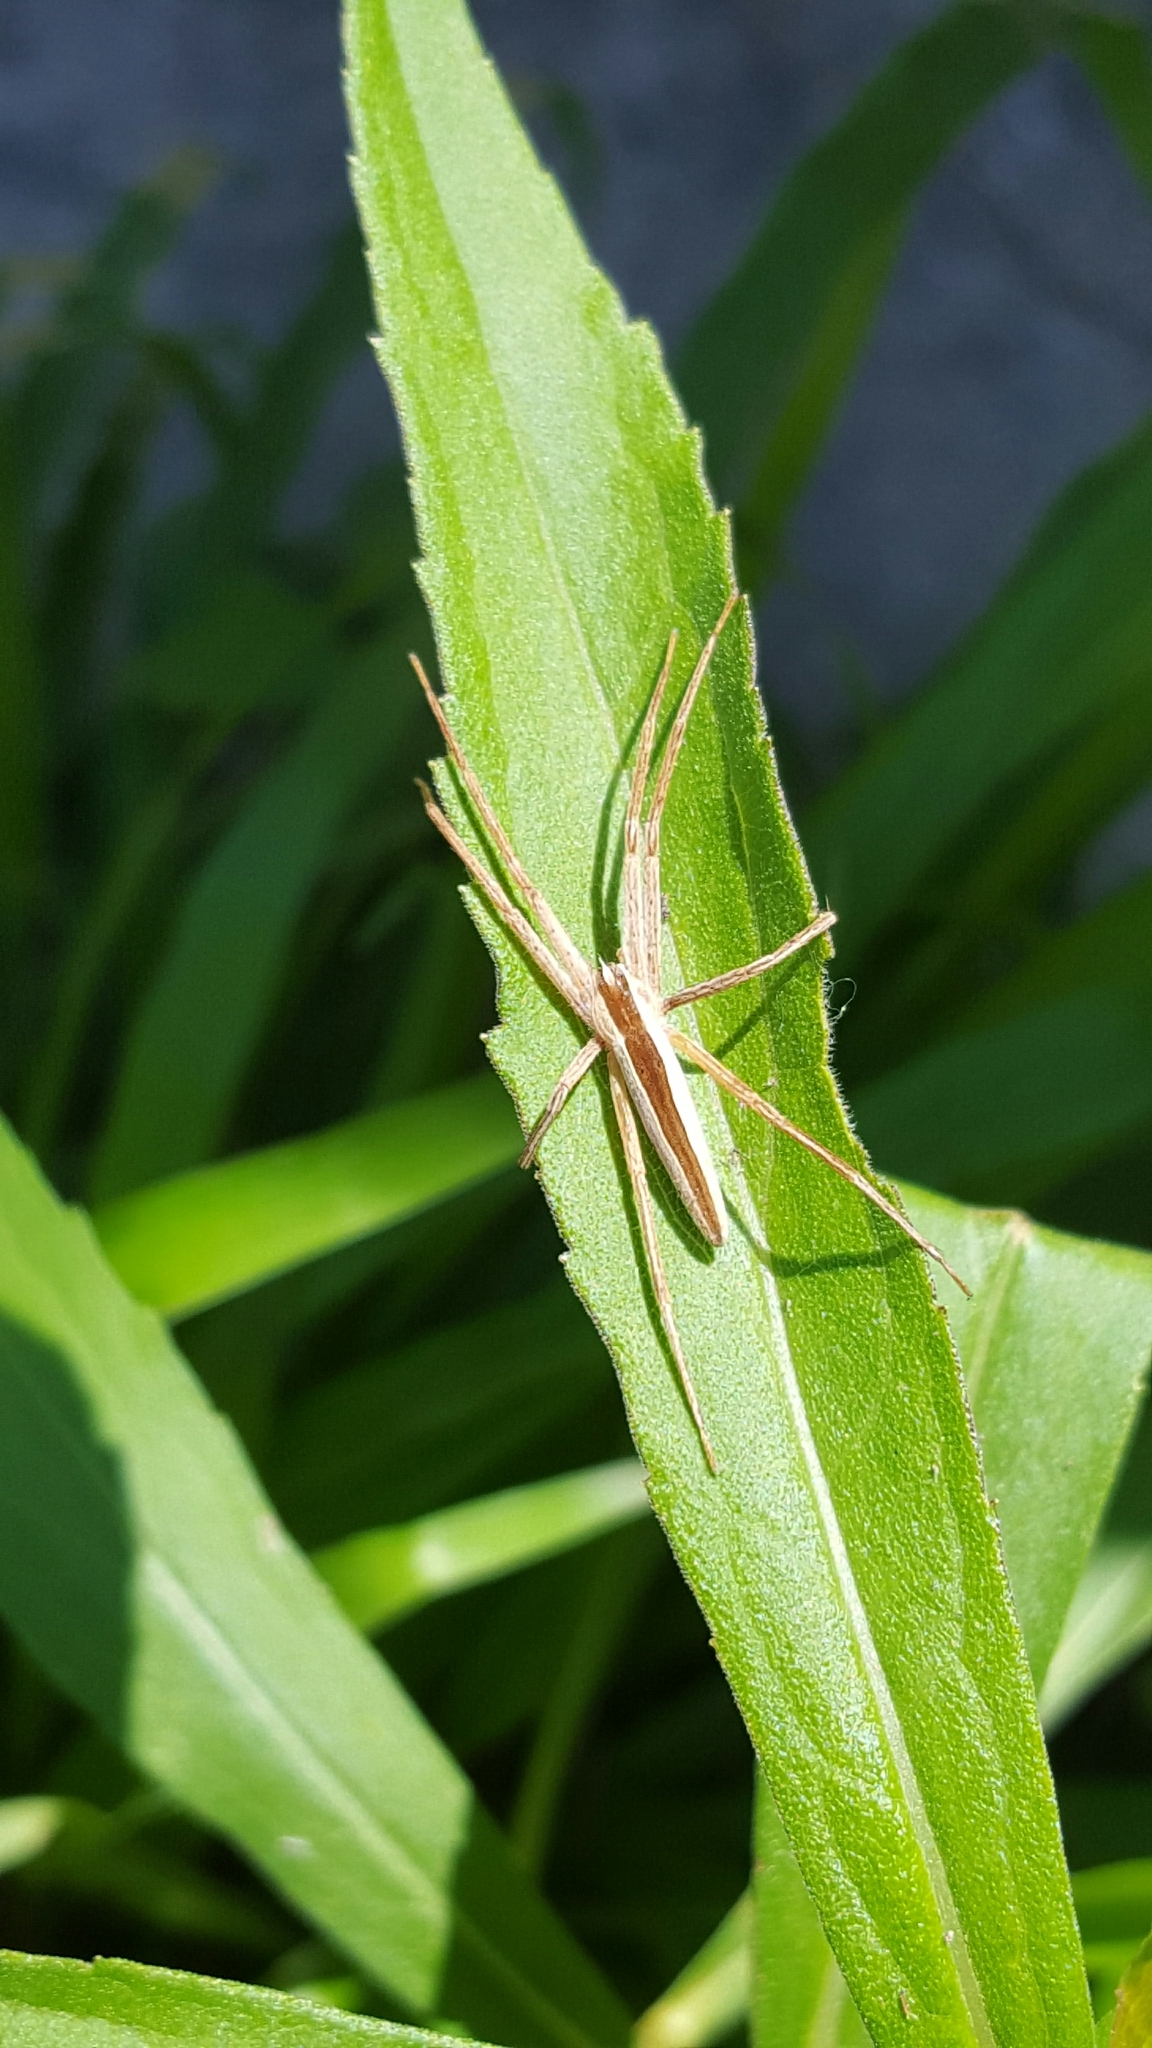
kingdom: Animalia
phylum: Arthropoda
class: Arachnida
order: Araneae
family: Pisauridae
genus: Pisaurina
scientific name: Pisaurina dubia
